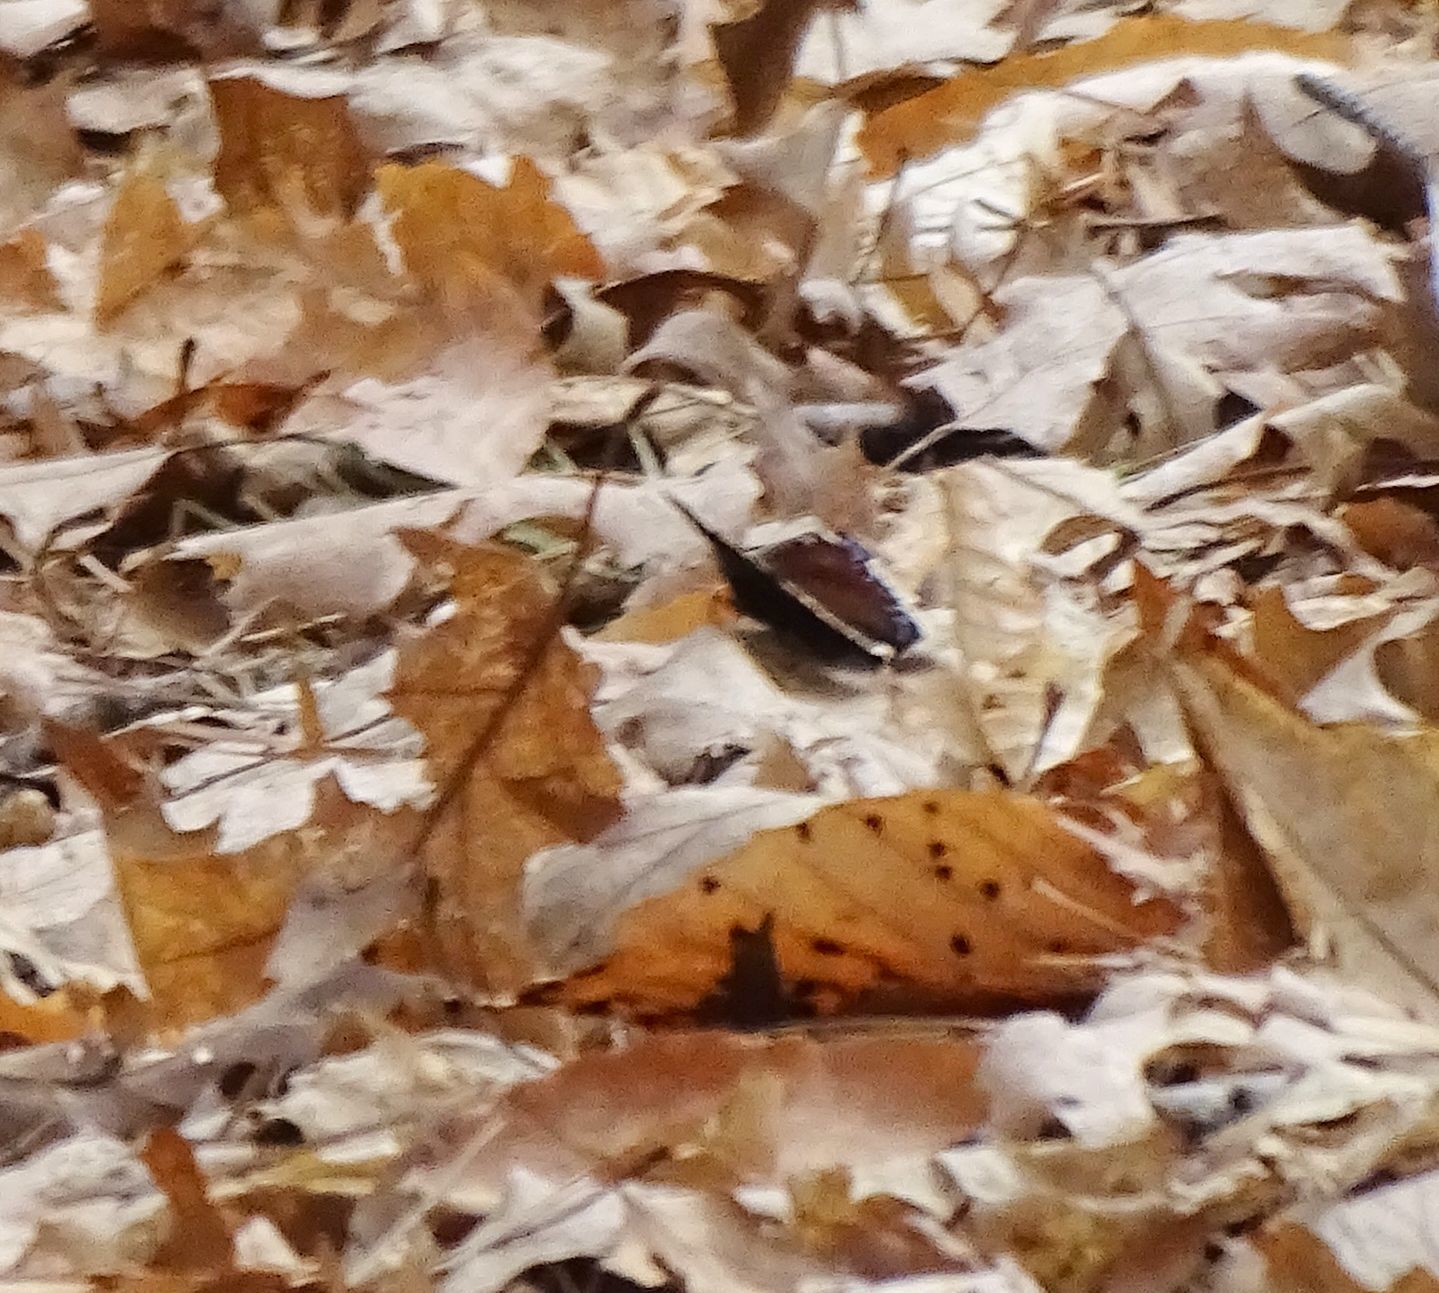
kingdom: Animalia
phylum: Arthropoda
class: Insecta
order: Lepidoptera
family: Nymphalidae
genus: Nymphalis
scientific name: Nymphalis antiopa
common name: Camberwell beauty
